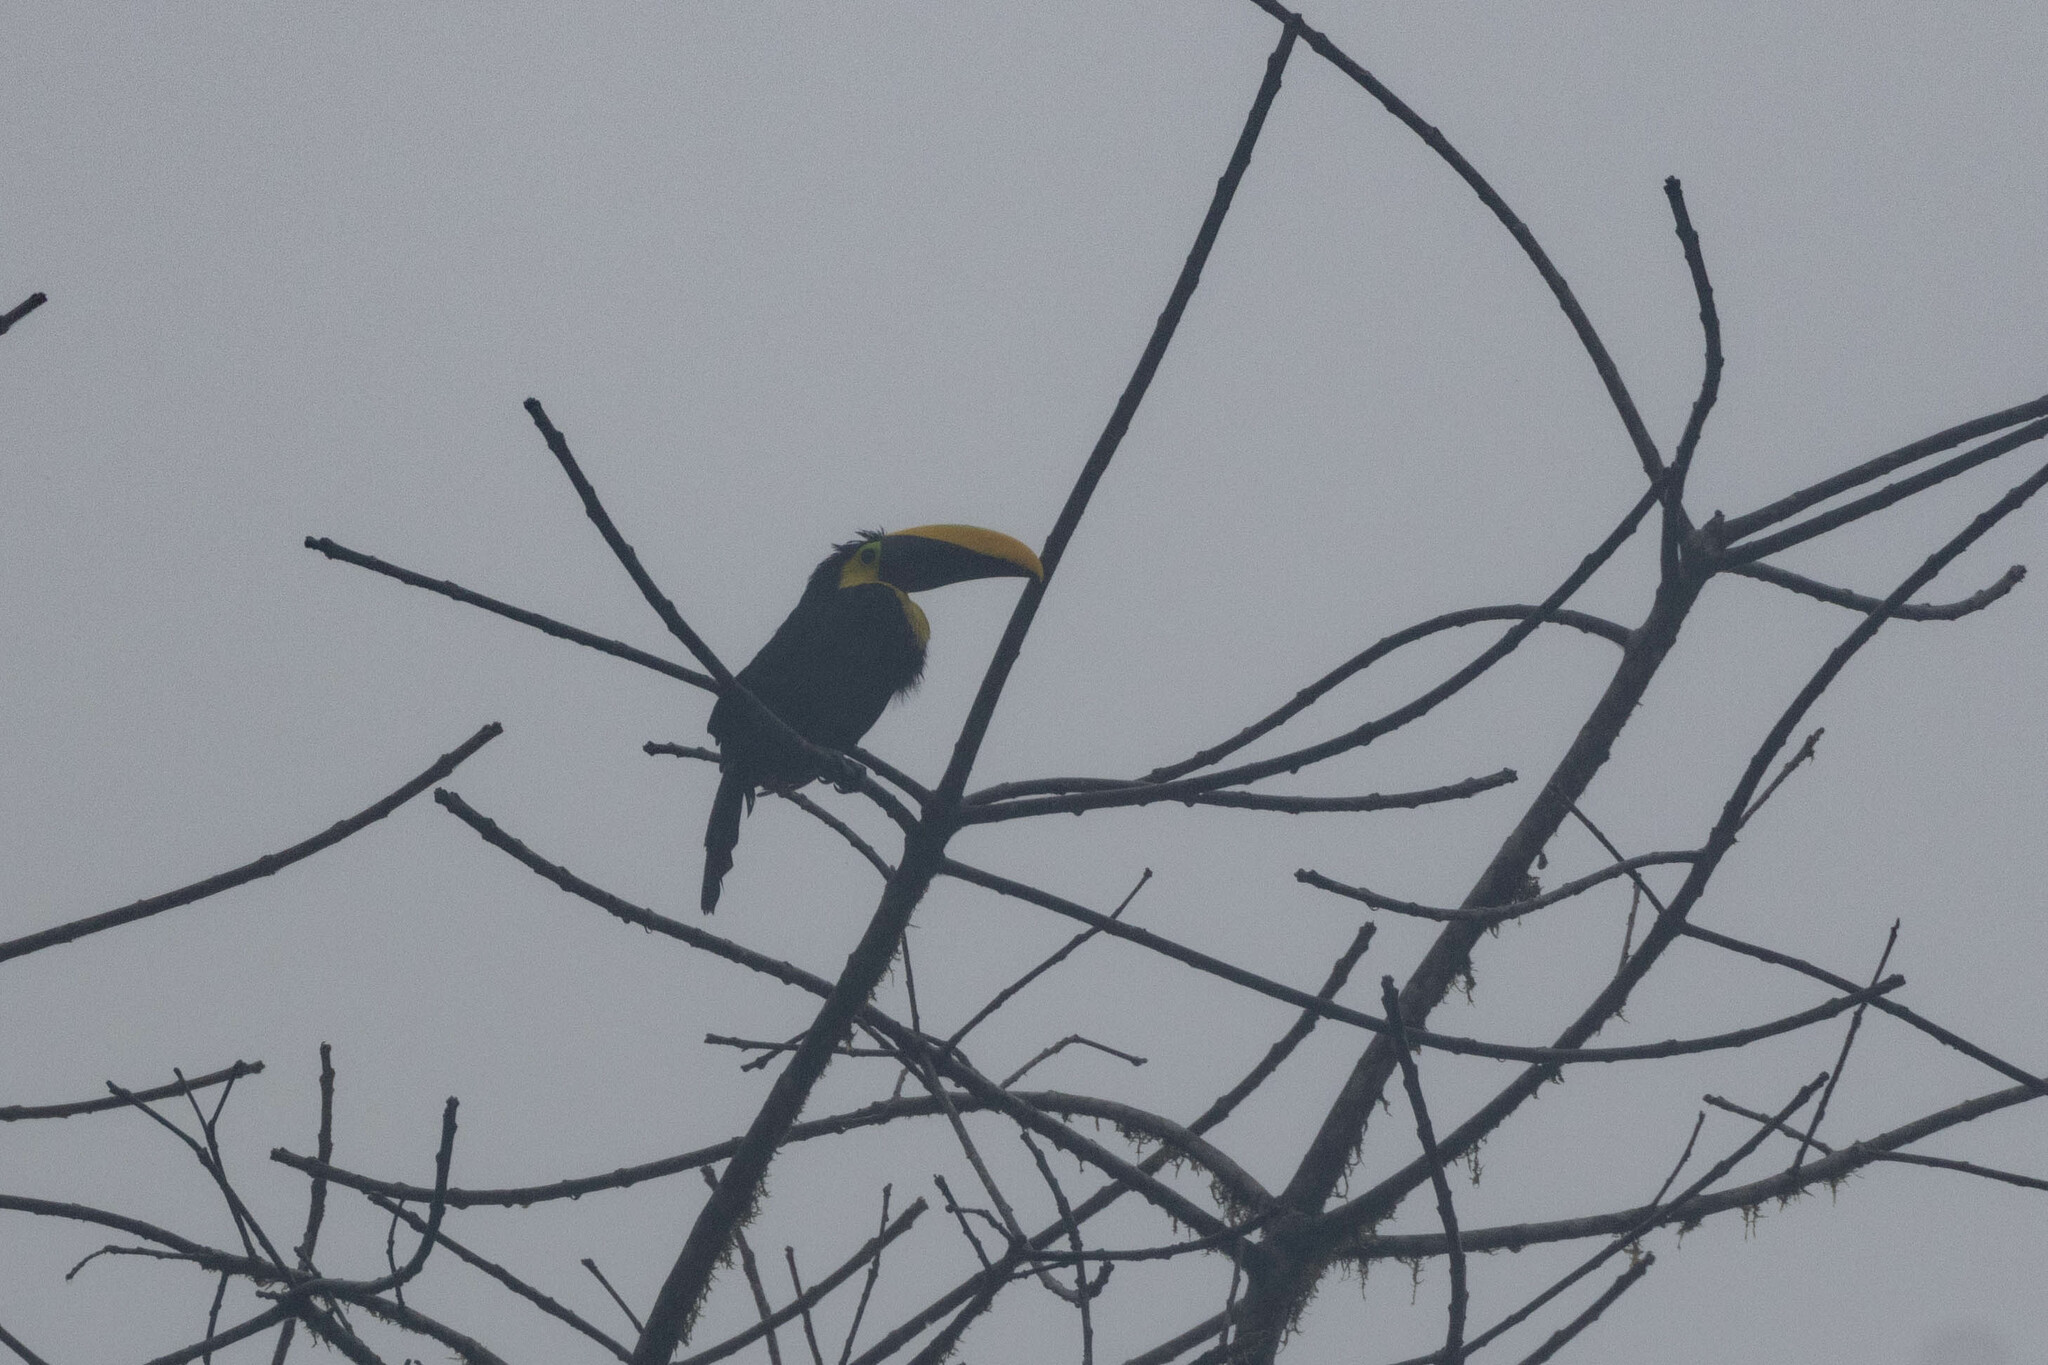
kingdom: Animalia
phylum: Chordata
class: Aves
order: Piciformes
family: Ramphastidae
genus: Ramphastos
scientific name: Ramphastos brevis
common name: Choco toucan
